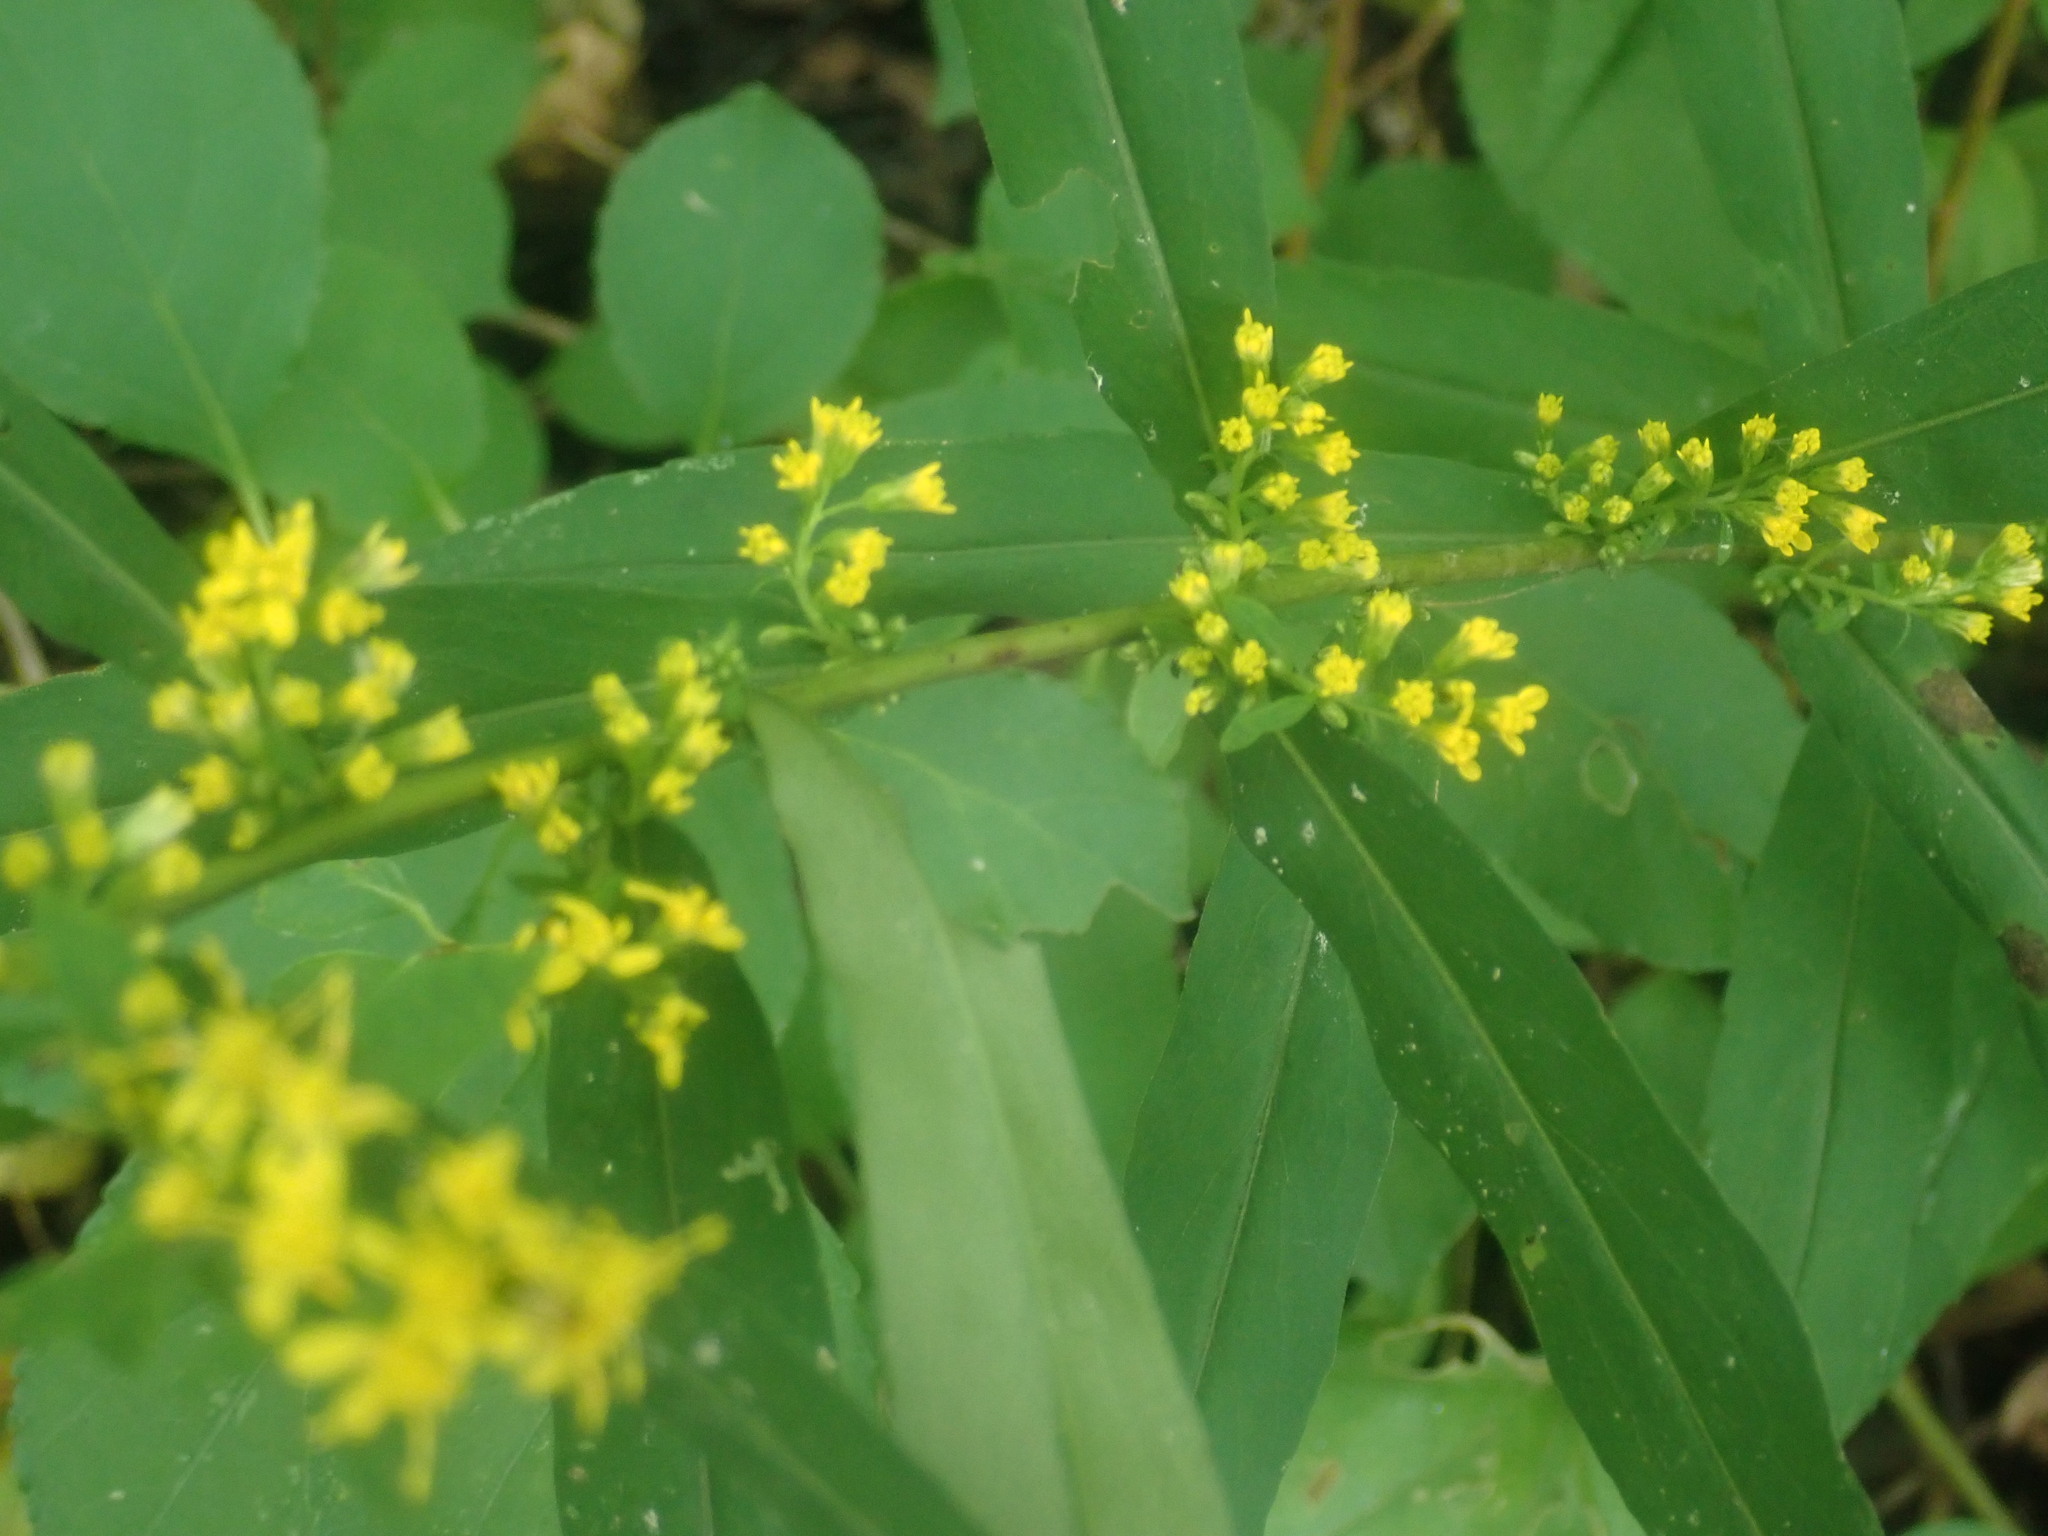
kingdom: Plantae
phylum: Tracheophyta
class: Magnoliopsida
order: Asterales
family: Asteraceae
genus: Solidago
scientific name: Solidago caesia
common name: Woodland goldenrod
